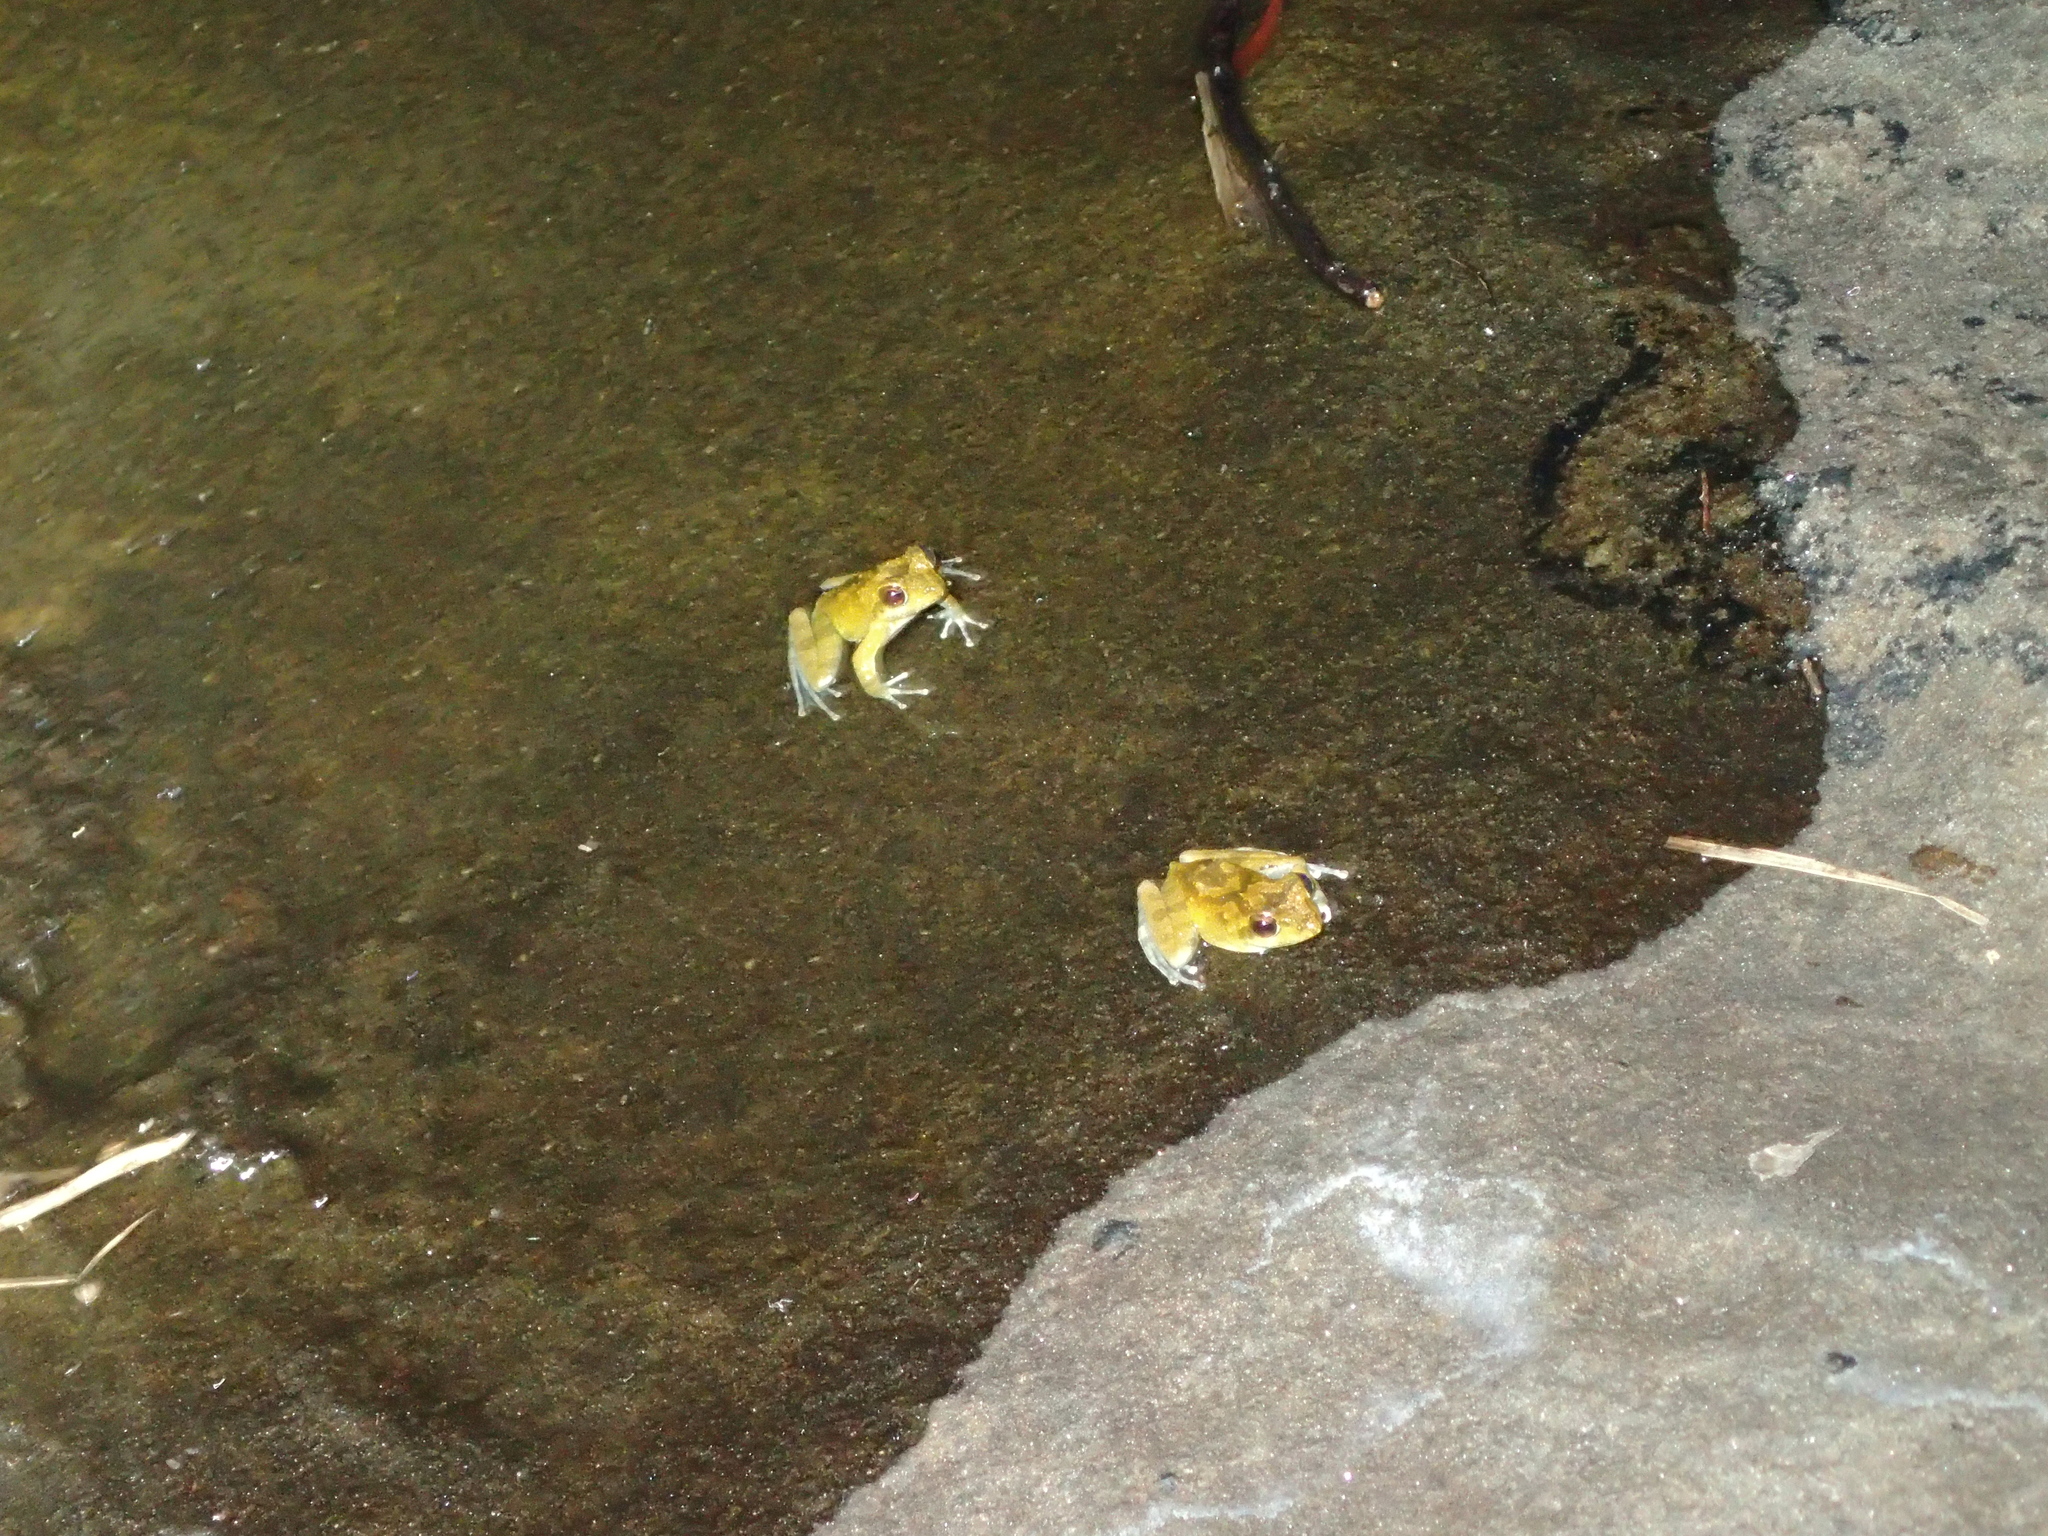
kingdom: Animalia
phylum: Chordata
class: Amphibia
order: Anura
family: Rhacophoridae
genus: Buergeria
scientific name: Buergeria choui
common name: Yaeyama kajika frog
